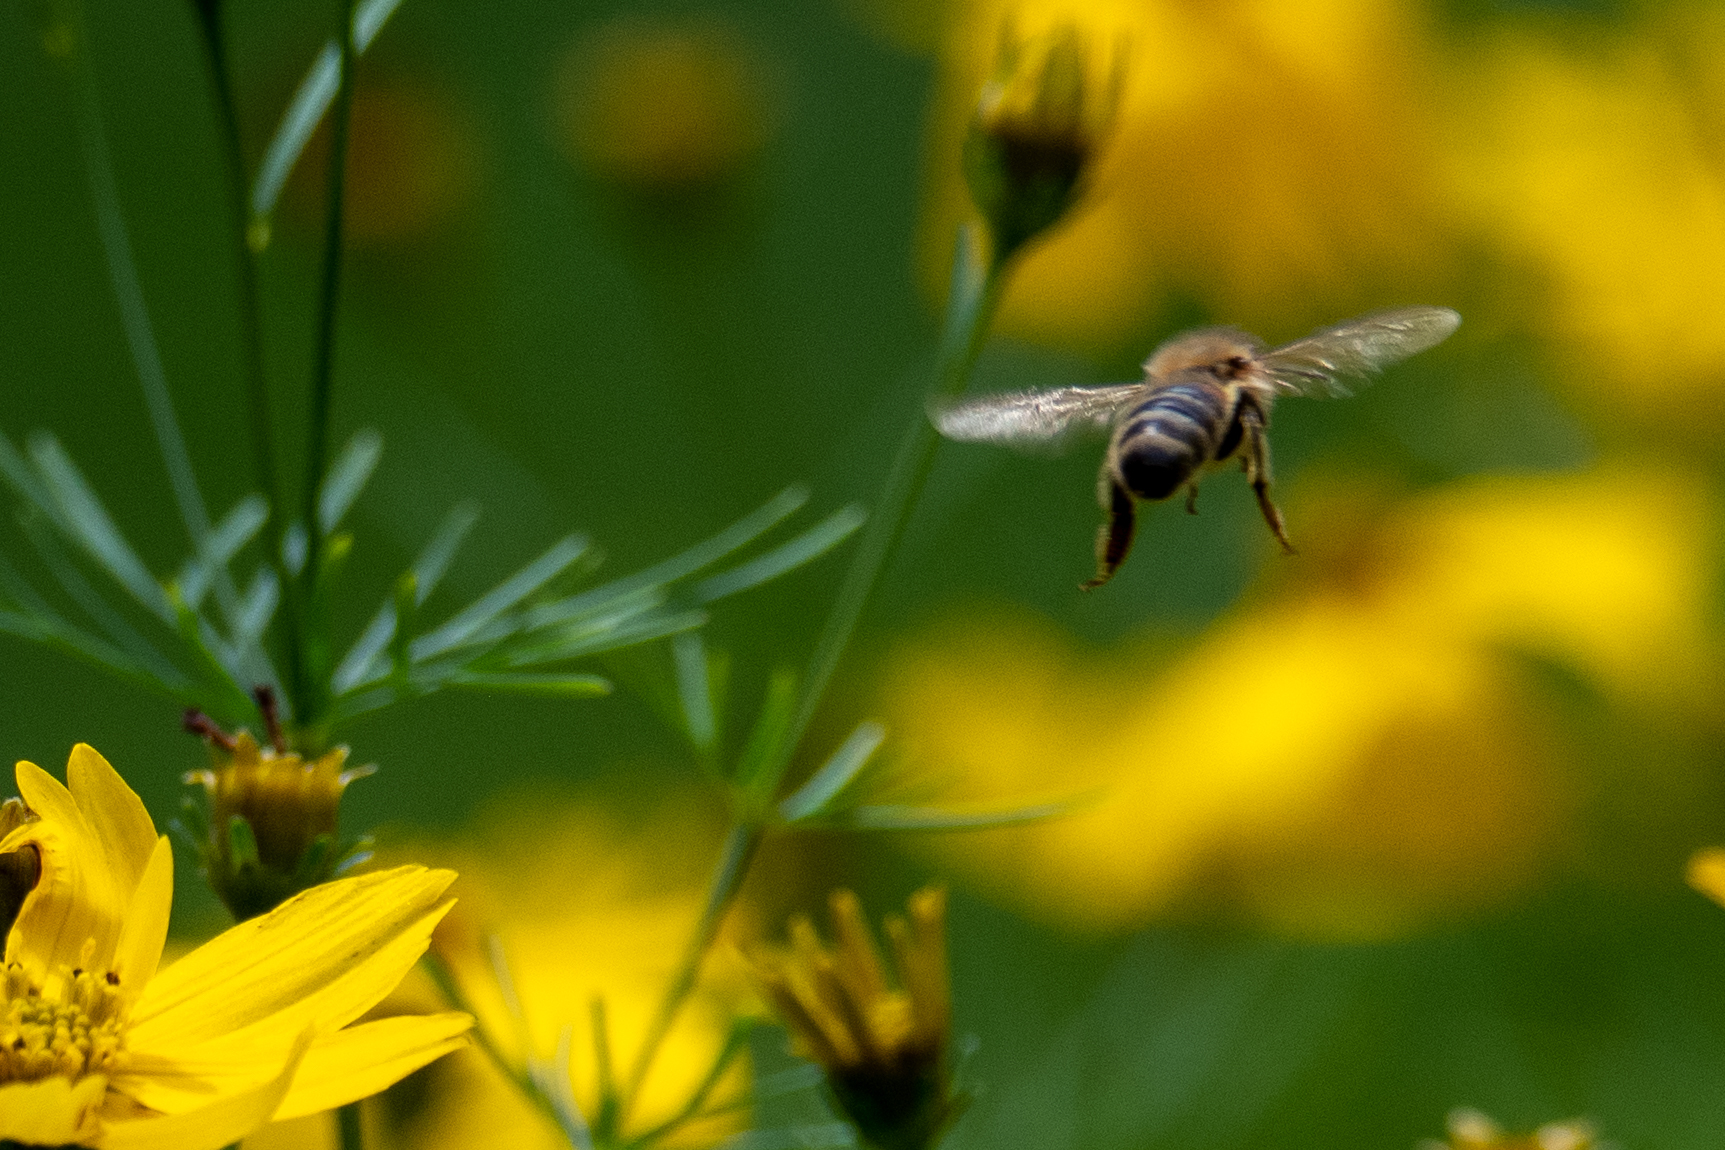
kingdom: Animalia
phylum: Arthropoda
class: Insecta
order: Hymenoptera
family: Apidae
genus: Apis
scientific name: Apis mellifera
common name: Honey bee
